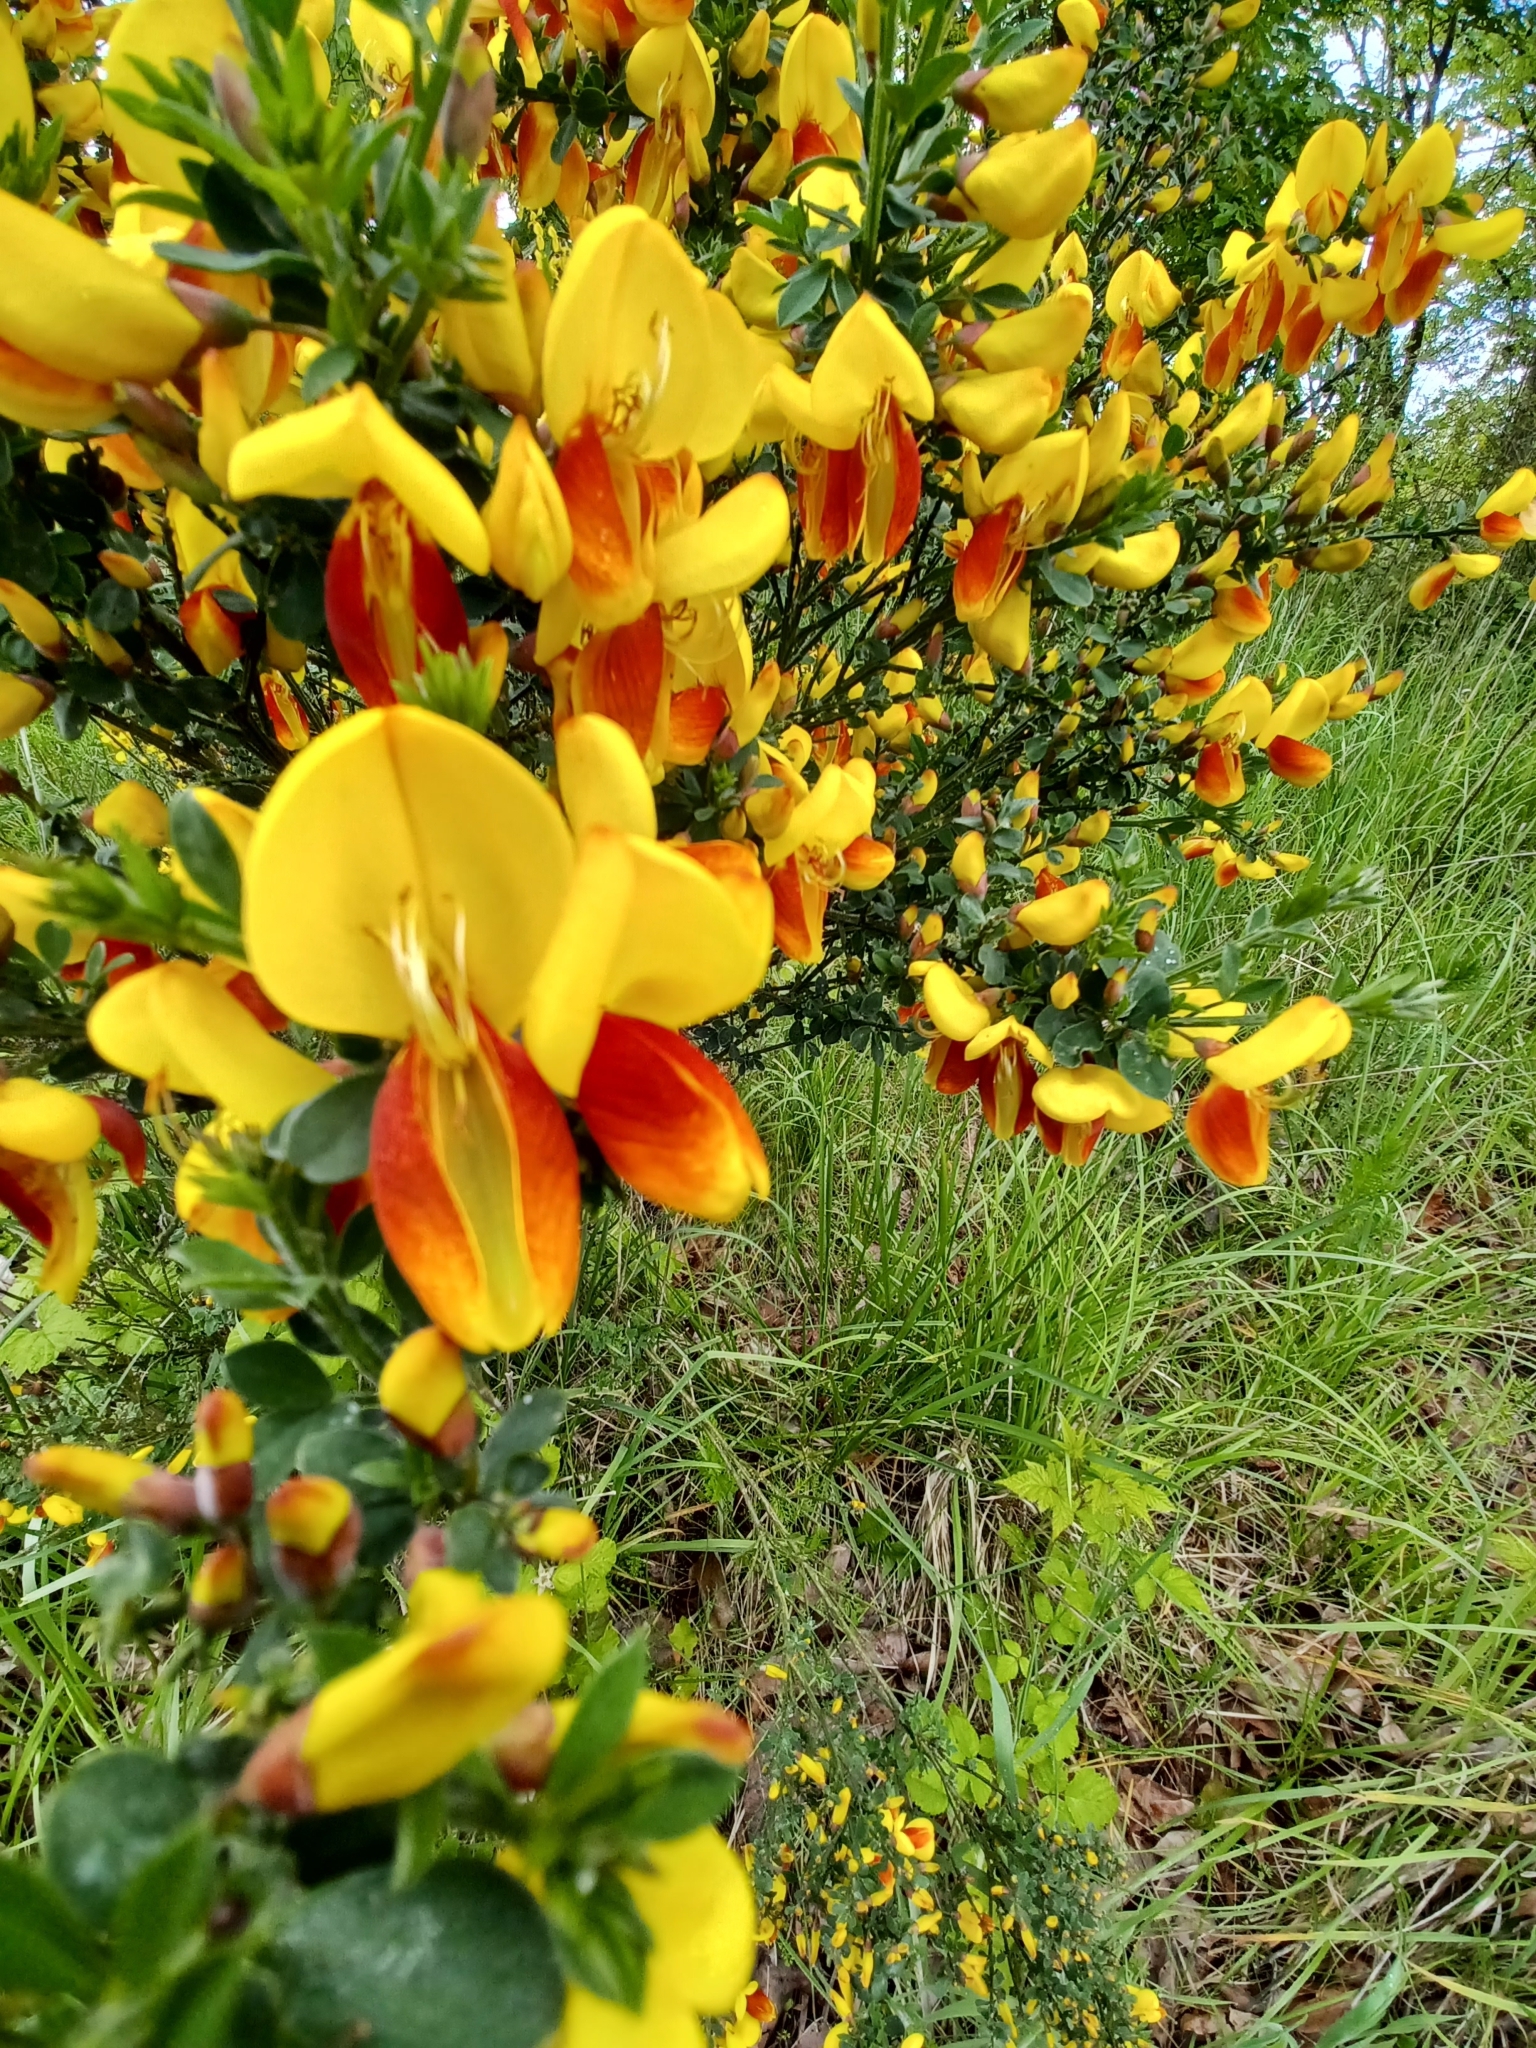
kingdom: Plantae
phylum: Tracheophyta
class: Magnoliopsida
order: Fabales
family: Fabaceae
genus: Cytisus
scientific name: Cytisus scoparius
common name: Scotch broom
